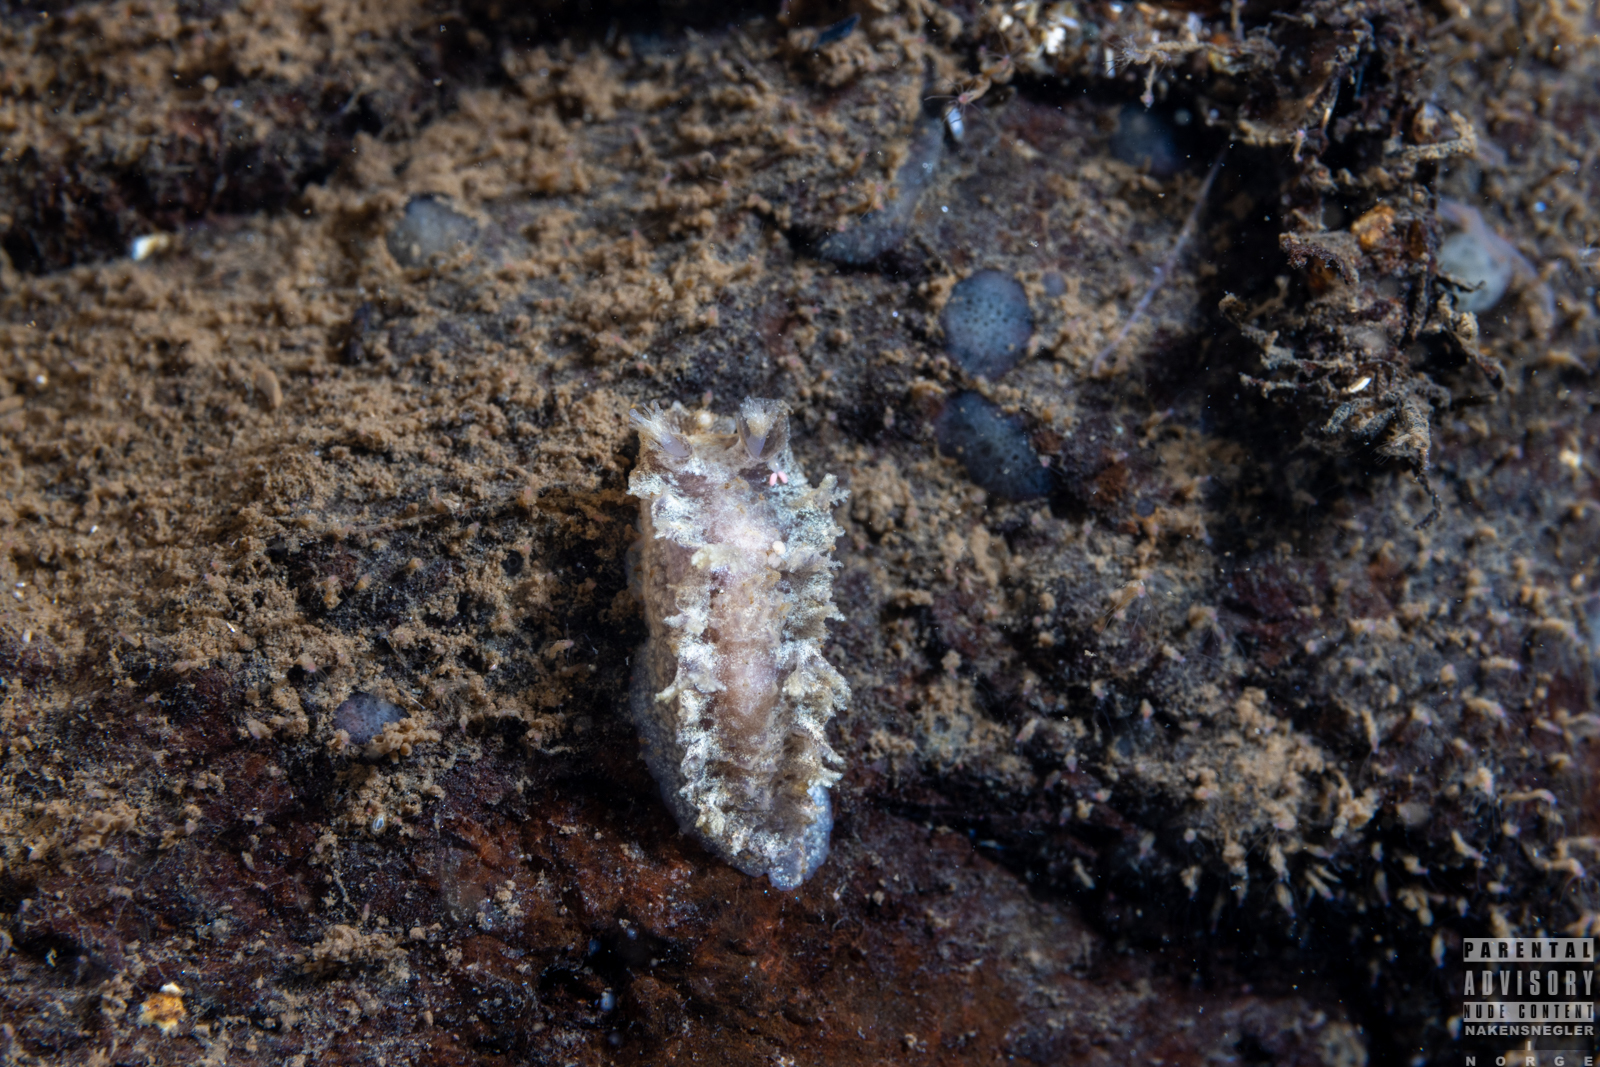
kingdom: Animalia
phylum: Mollusca
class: Gastropoda
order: Nudibranchia
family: Tritoniidae
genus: Duvaucelia
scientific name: Duvaucelia plebeia
